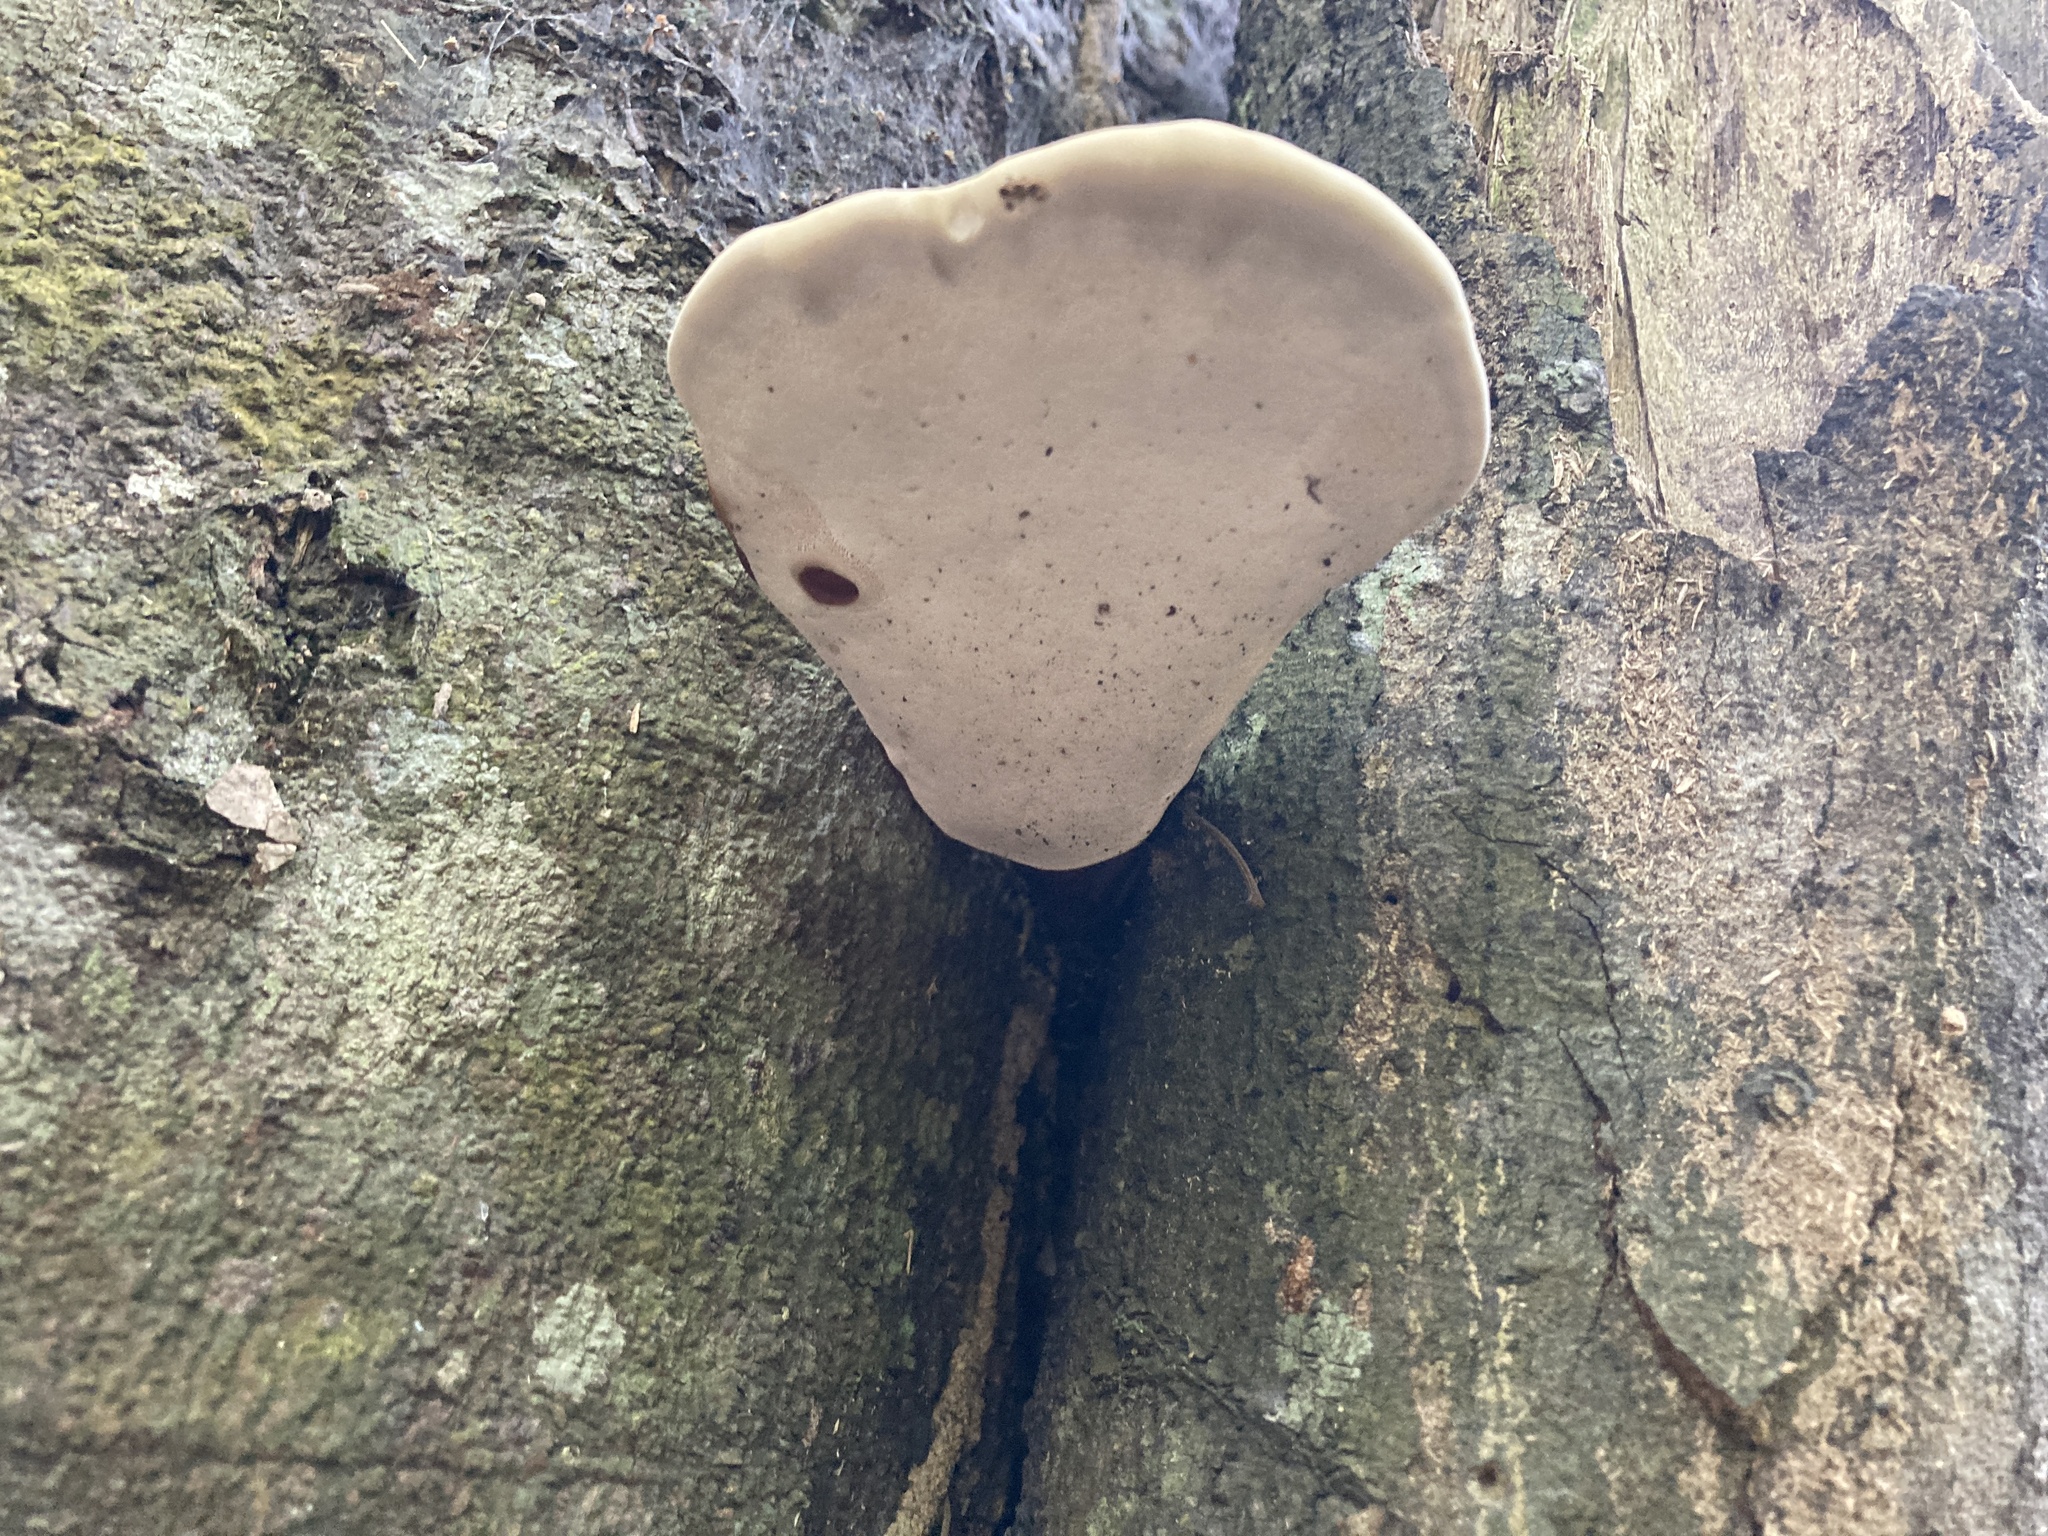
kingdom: Fungi
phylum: Basidiomycota
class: Agaricomycetes
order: Polyporales
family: Polyporaceae
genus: Ganoderma
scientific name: Ganoderma orbiforme
